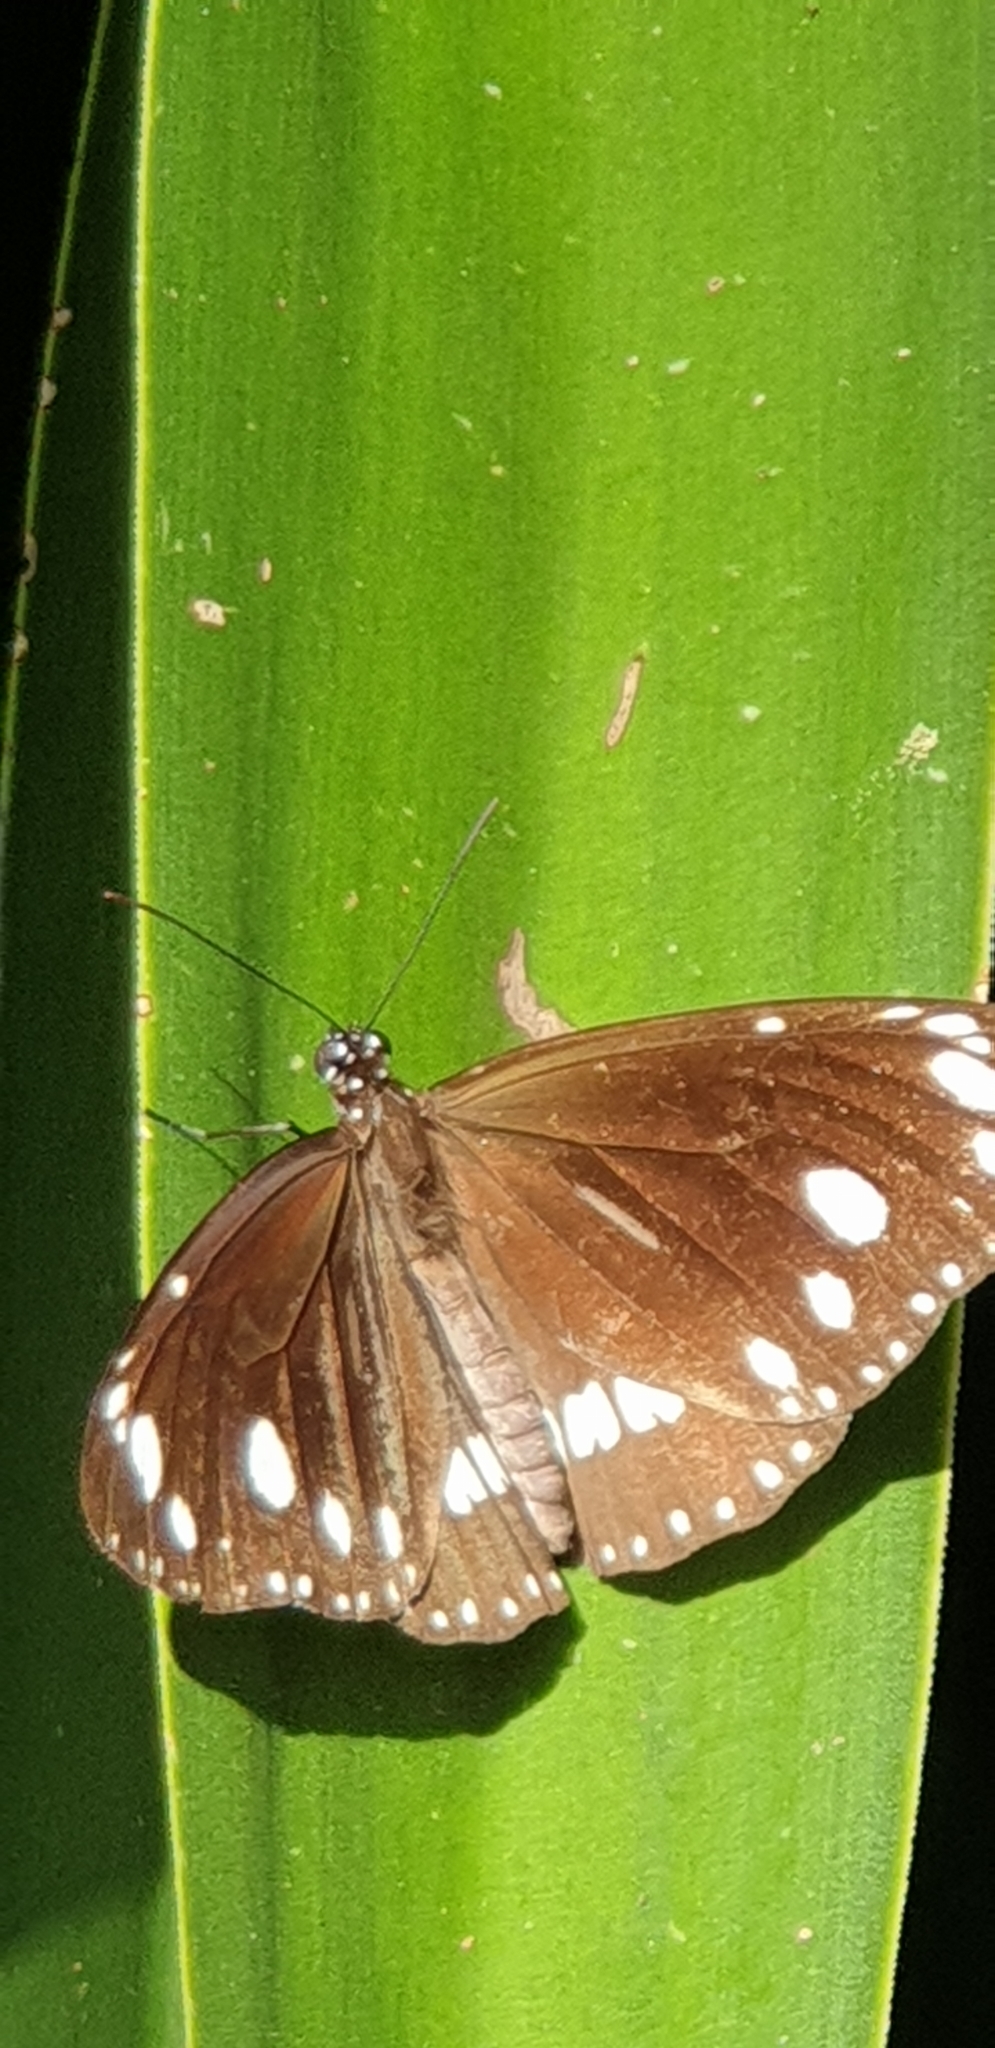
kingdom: Animalia
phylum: Arthropoda
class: Insecta
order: Lepidoptera
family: Nymphalidae
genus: Euploea
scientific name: Euploea core
